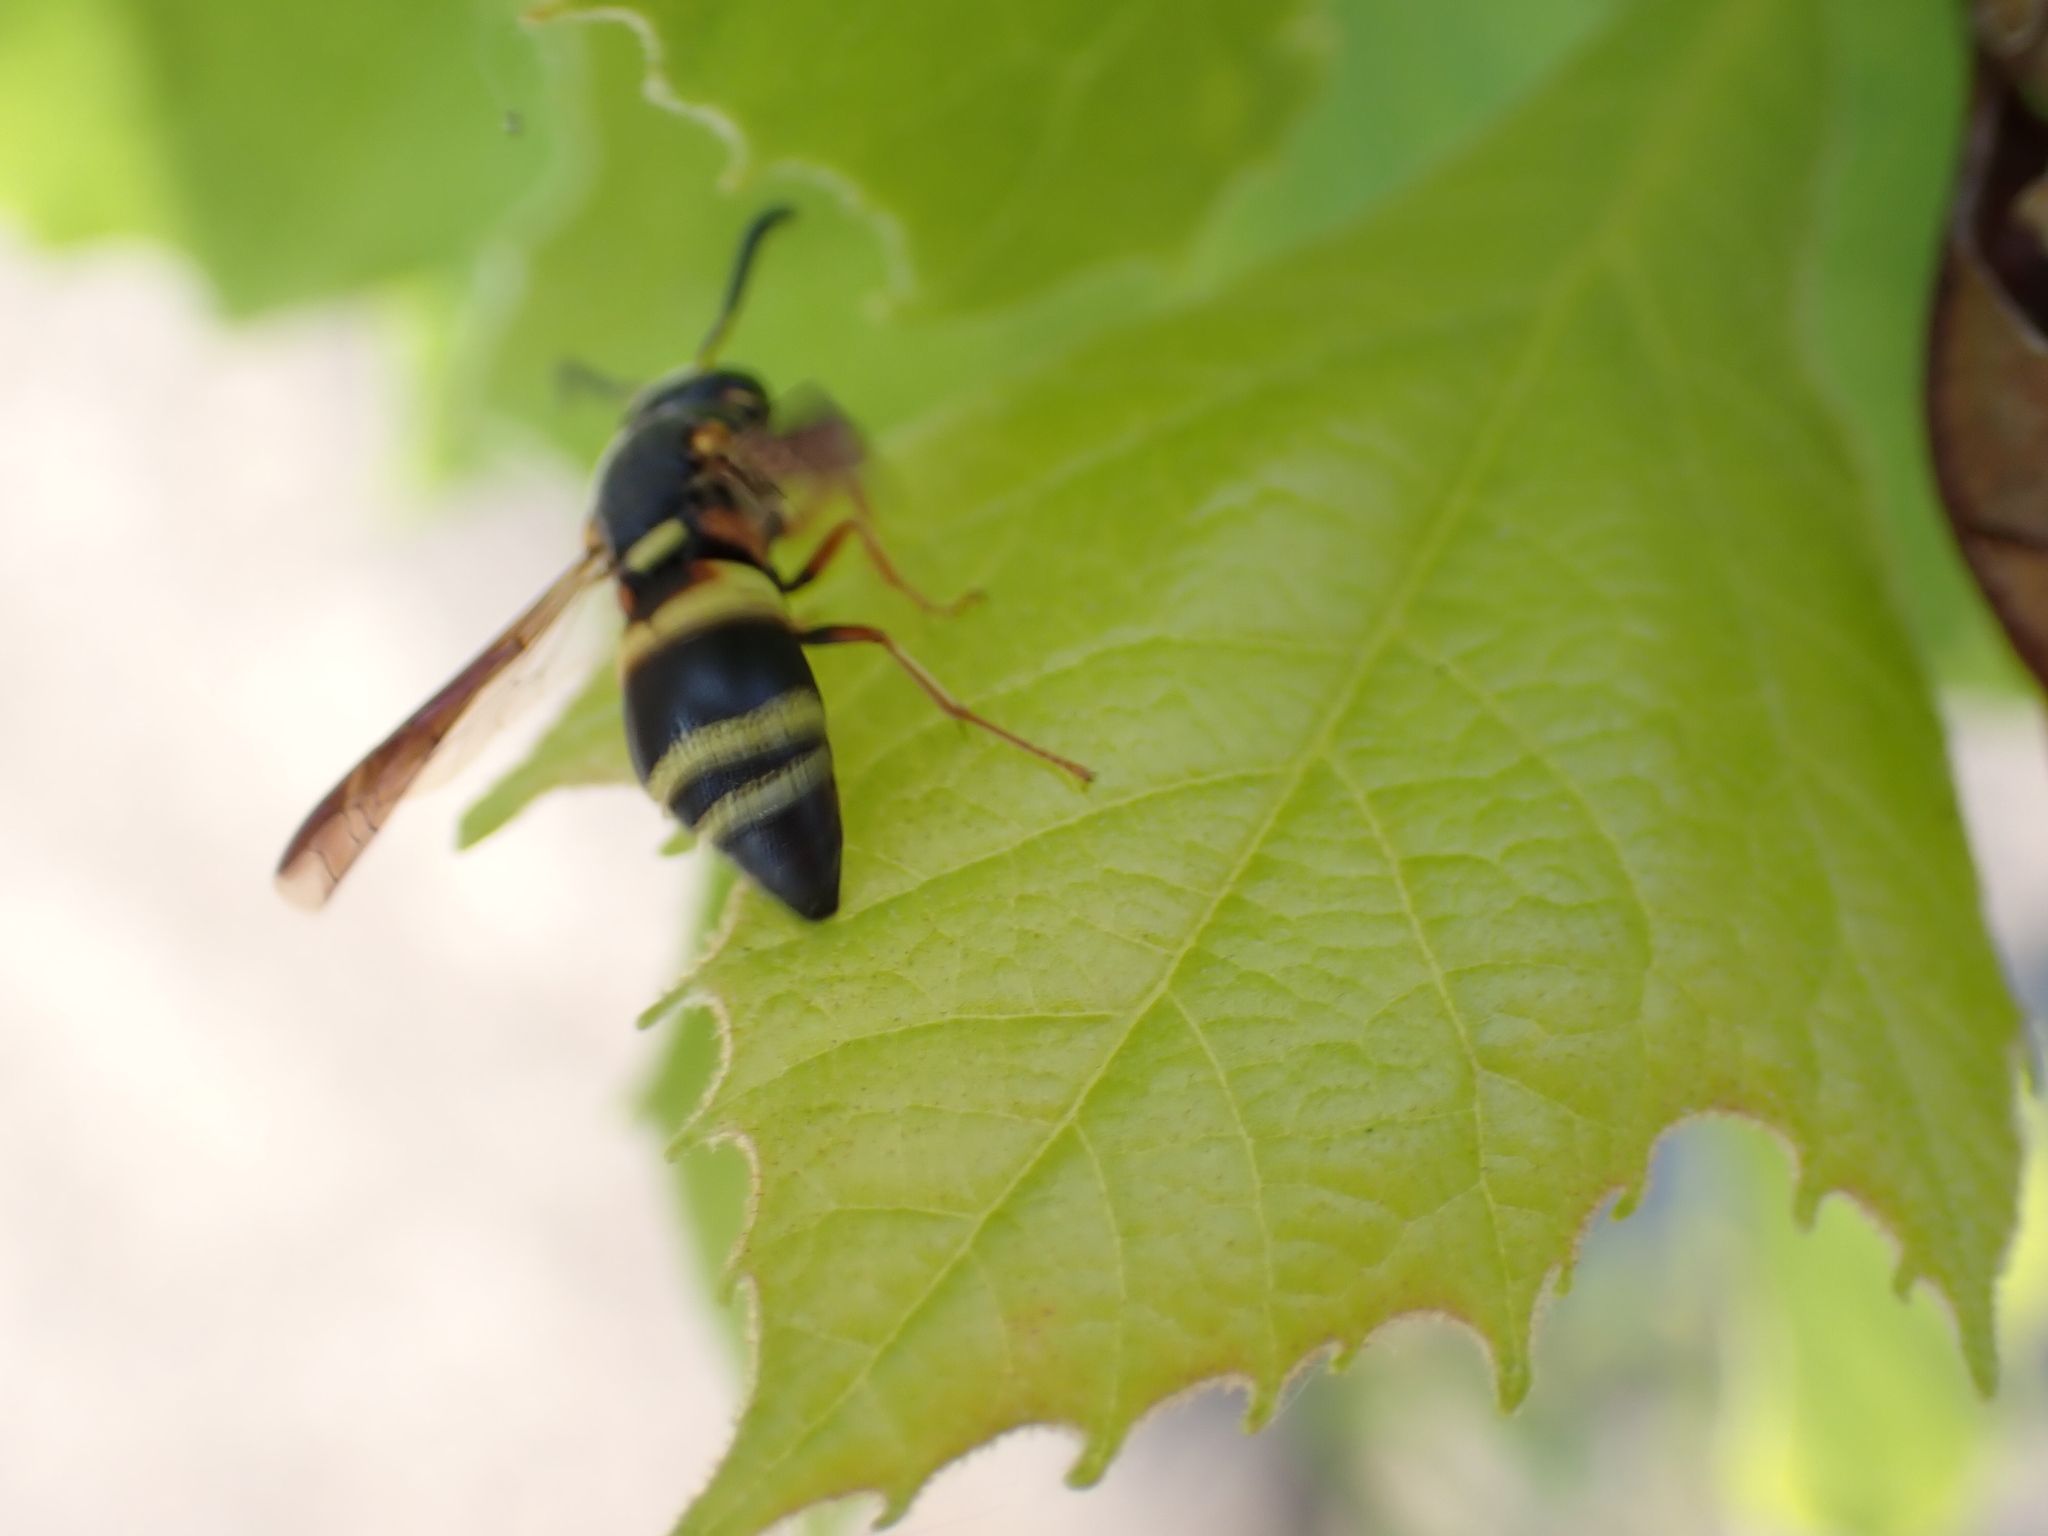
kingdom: Animalia
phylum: Arthropoda
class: Insecta
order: Hymenoptera
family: Eumenidae
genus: Euodynerus
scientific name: Euodynerus hidalgo
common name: Wasp
